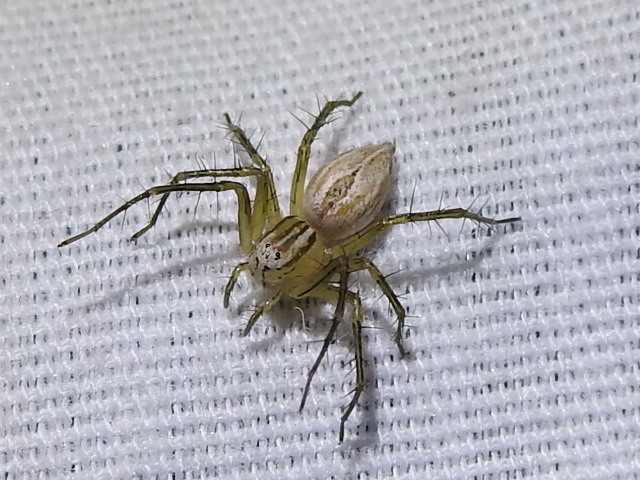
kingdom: Animalia
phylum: Arthropoda
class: Arachnida
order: Araneae
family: Oxyopidae
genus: Oxyopes
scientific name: Oxyopes salticus
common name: Lynx spiders
